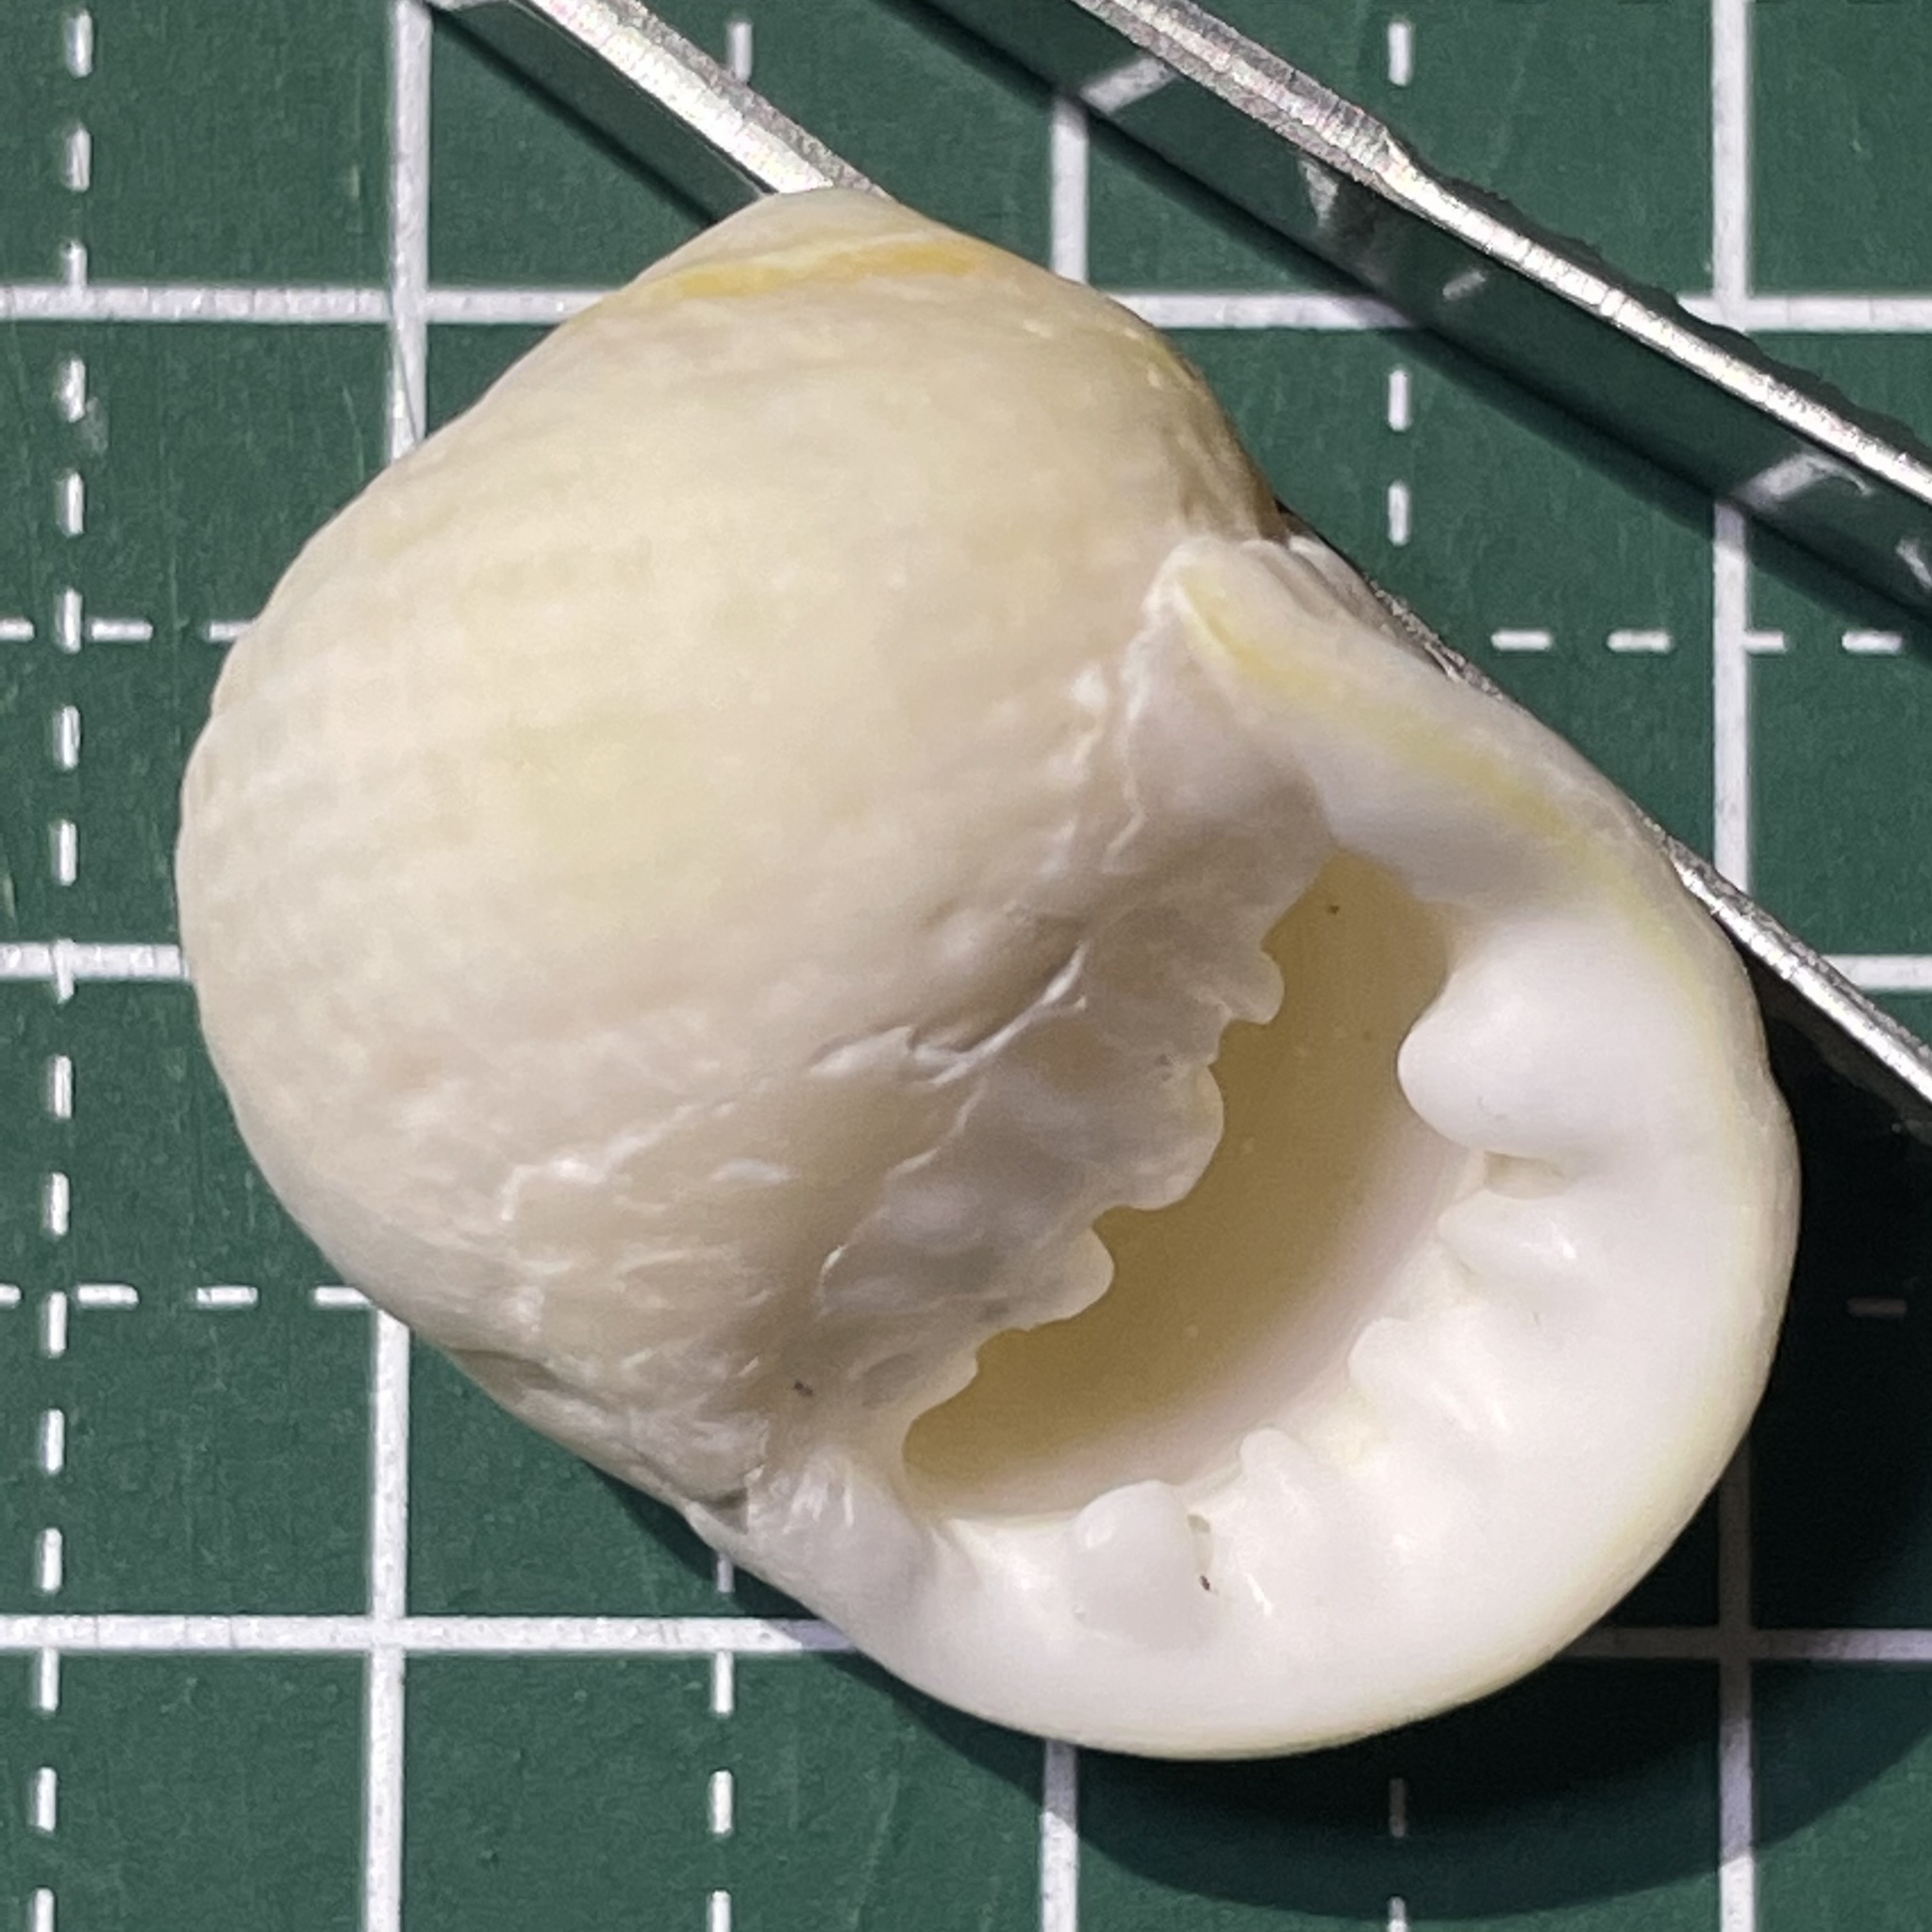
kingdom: Animalia
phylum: Mollusca
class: Gastropoda
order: Cycloneritida
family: Neritidae
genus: Nerita
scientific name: Nerita plicata
